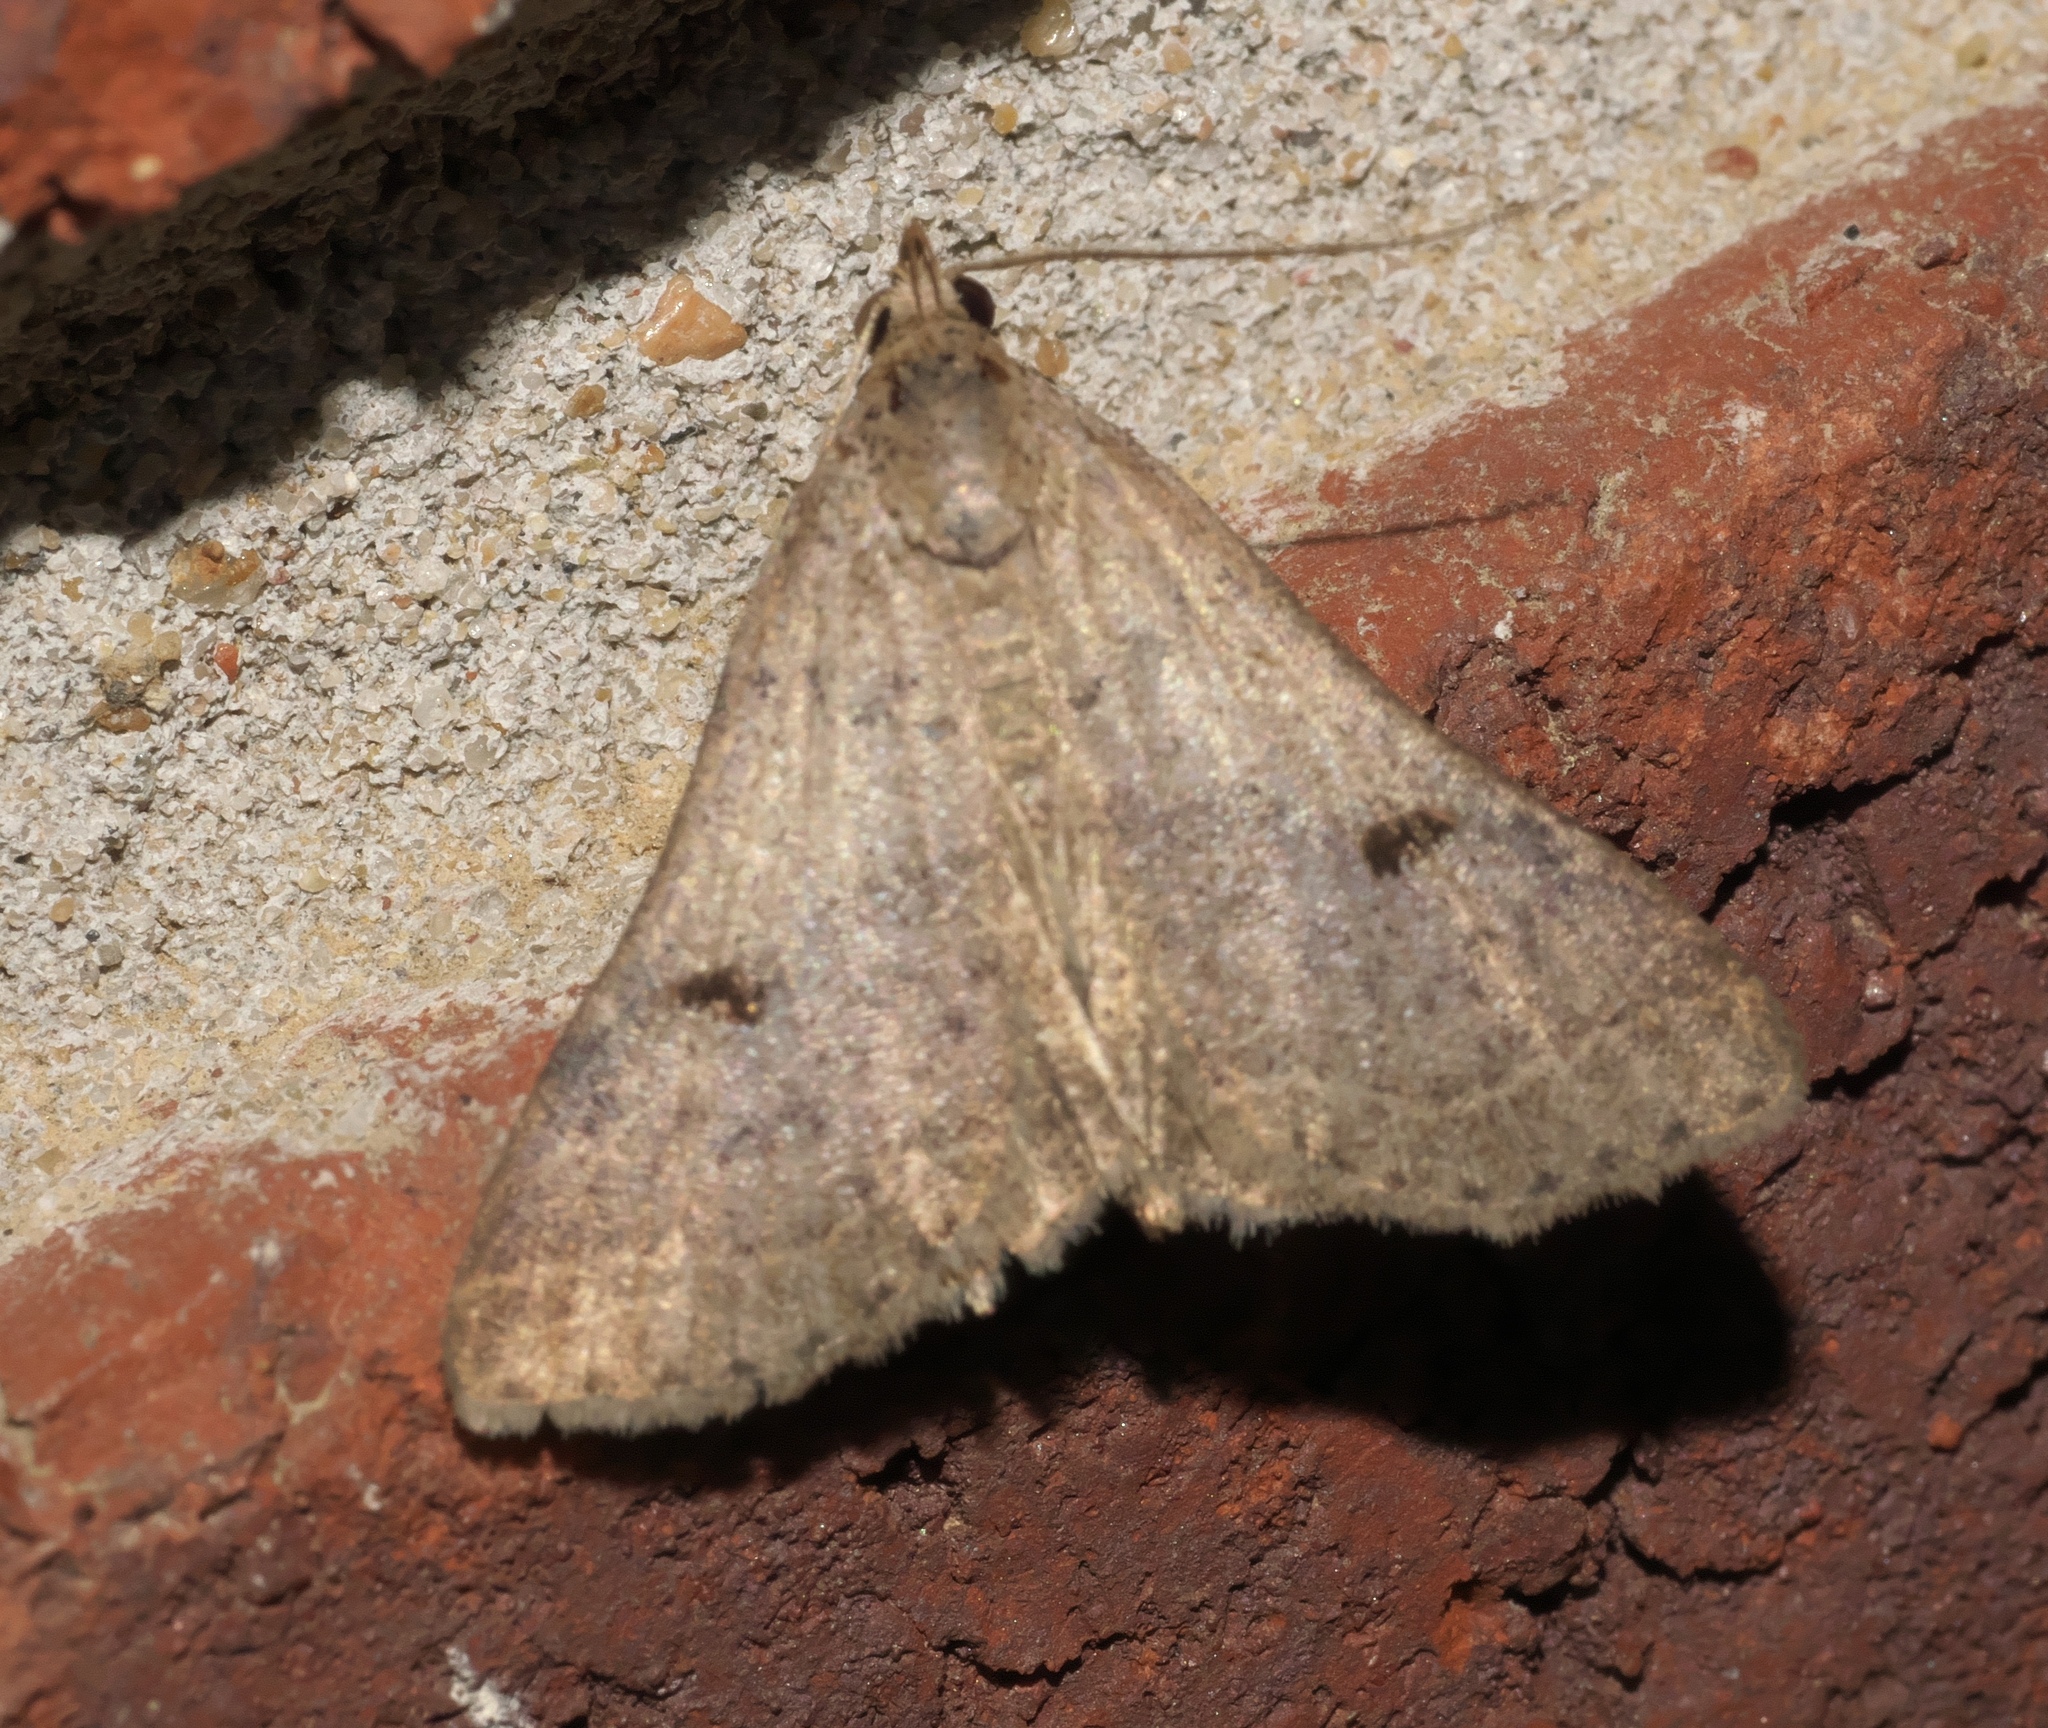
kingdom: Animalia
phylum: Arthropoda
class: Insecta
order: Lepidoptera
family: Erebidae
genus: Bleptina
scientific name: Bleptina caradrinalis
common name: Bent-winged owlet
